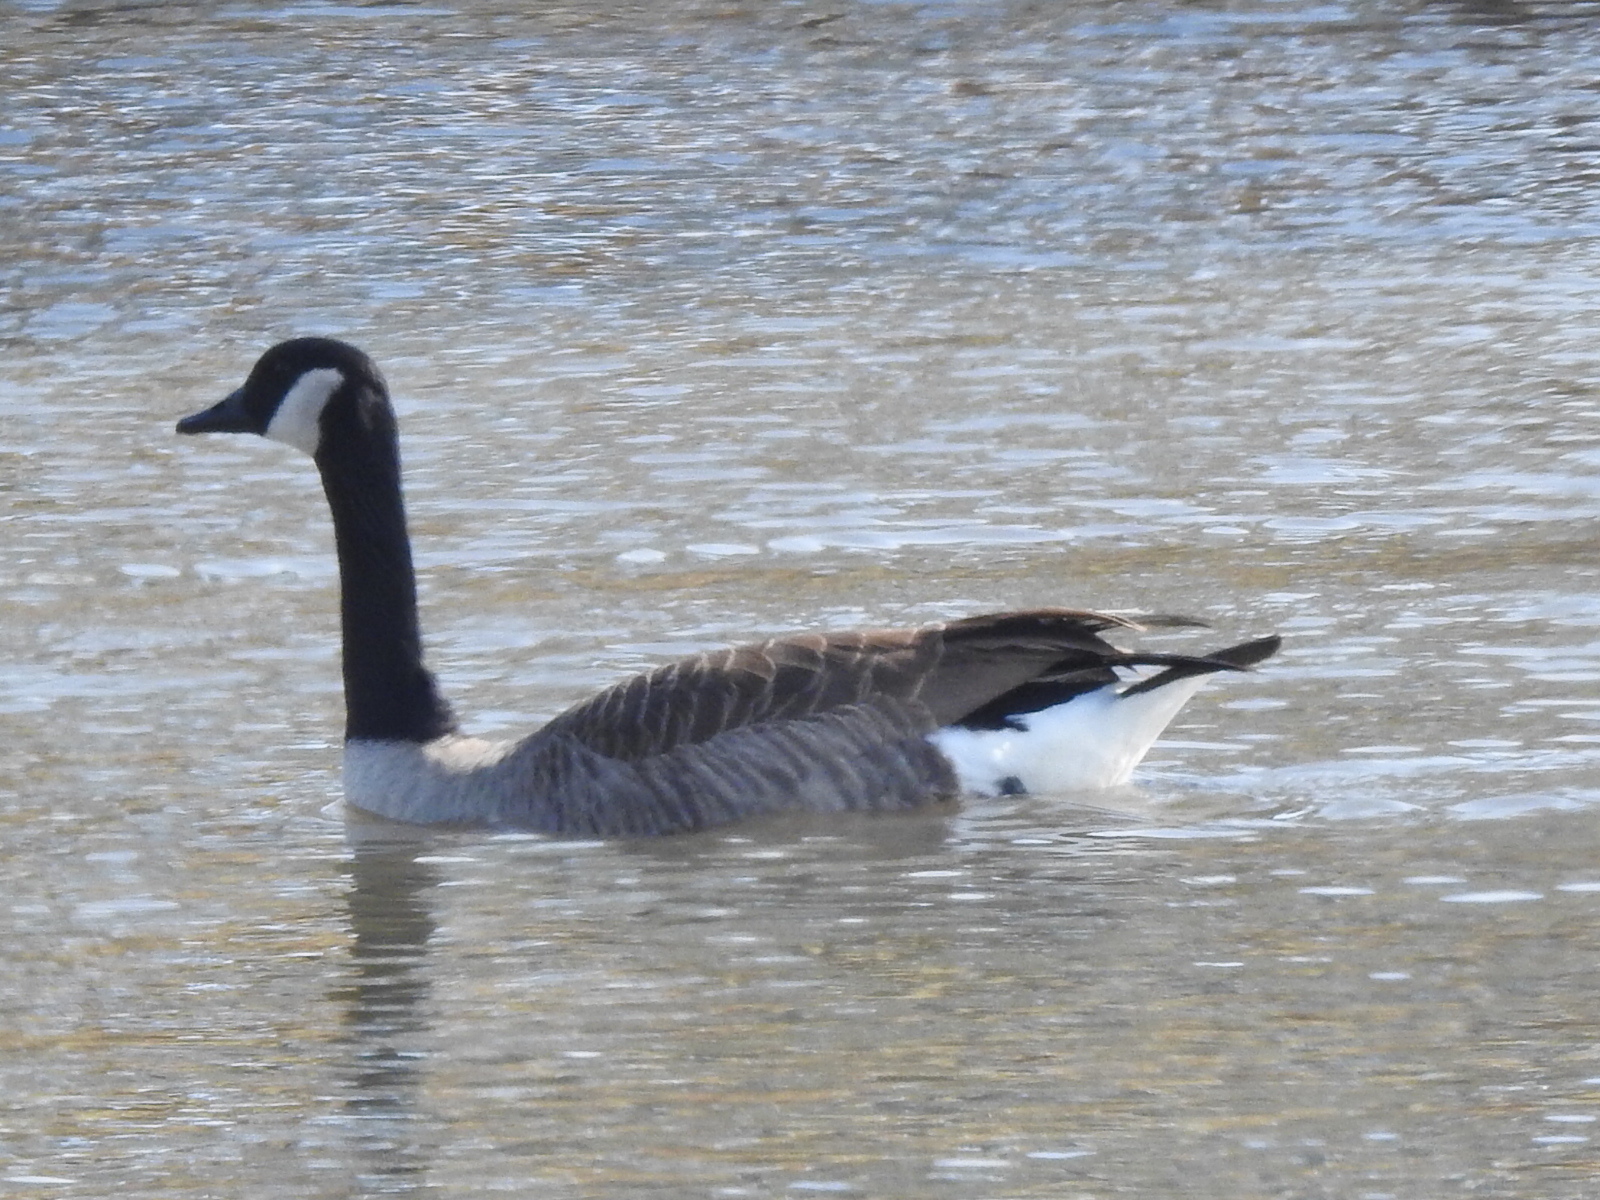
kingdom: Animalia
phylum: Chordata
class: Aves
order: Anseriformes
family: Anatidae
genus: Branta
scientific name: Branta canadensis
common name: Canada goose
